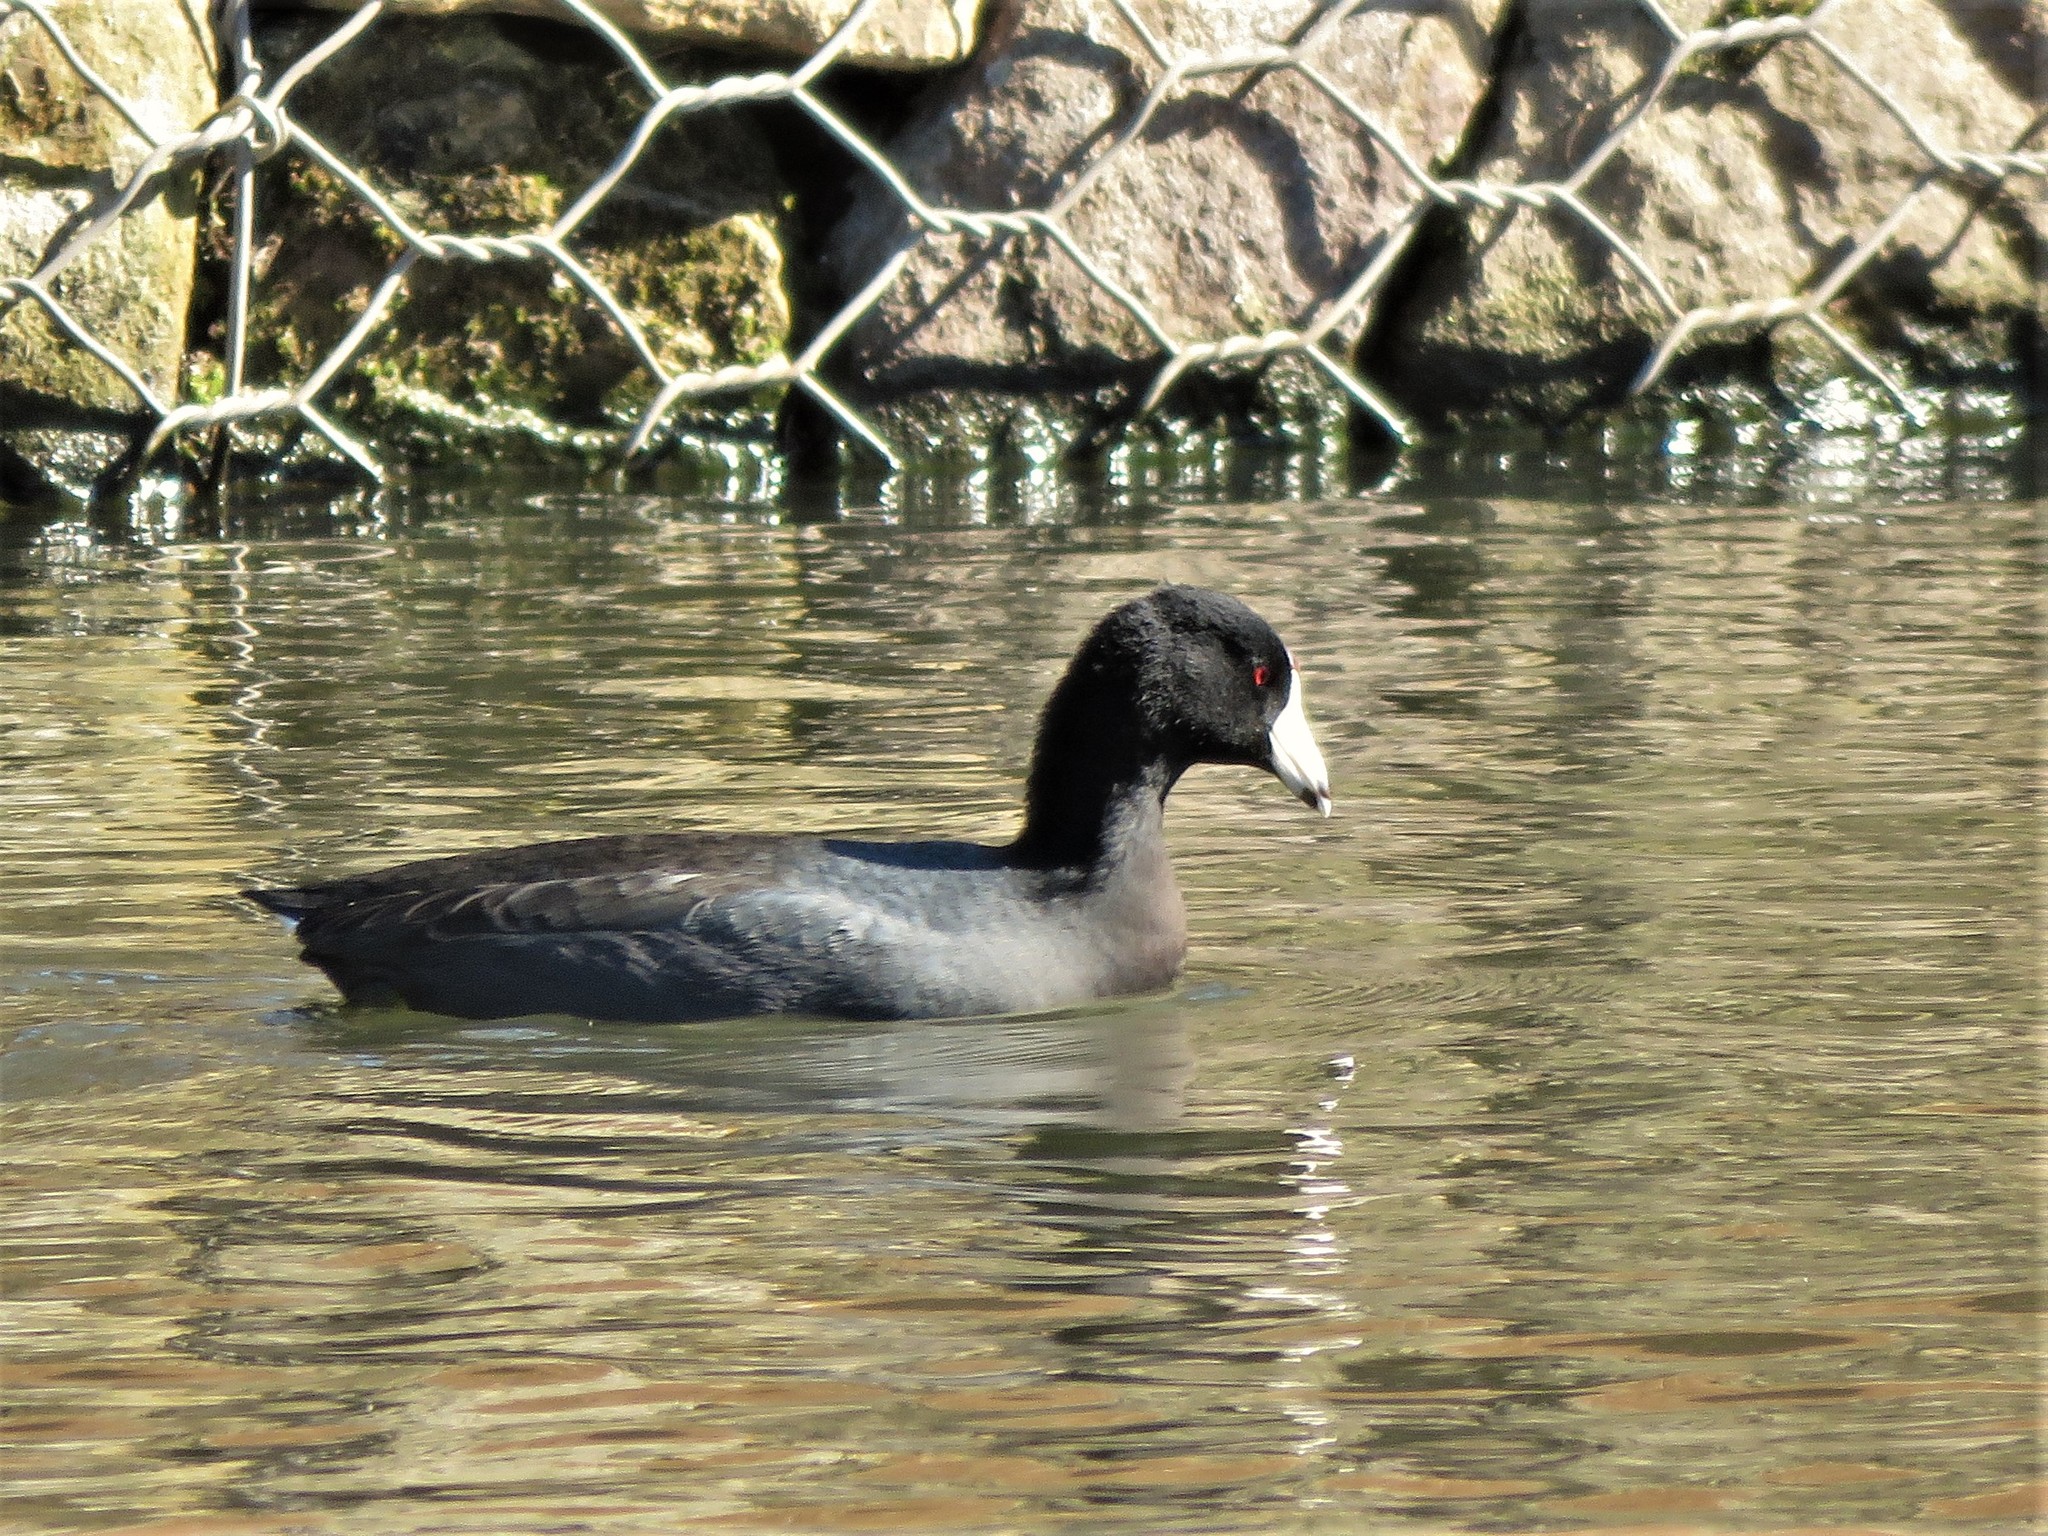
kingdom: Animalia
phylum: Chordata
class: Aves
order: Gruiformes
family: Rallidae
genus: Fulica
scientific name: Fulica americana
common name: American coot
